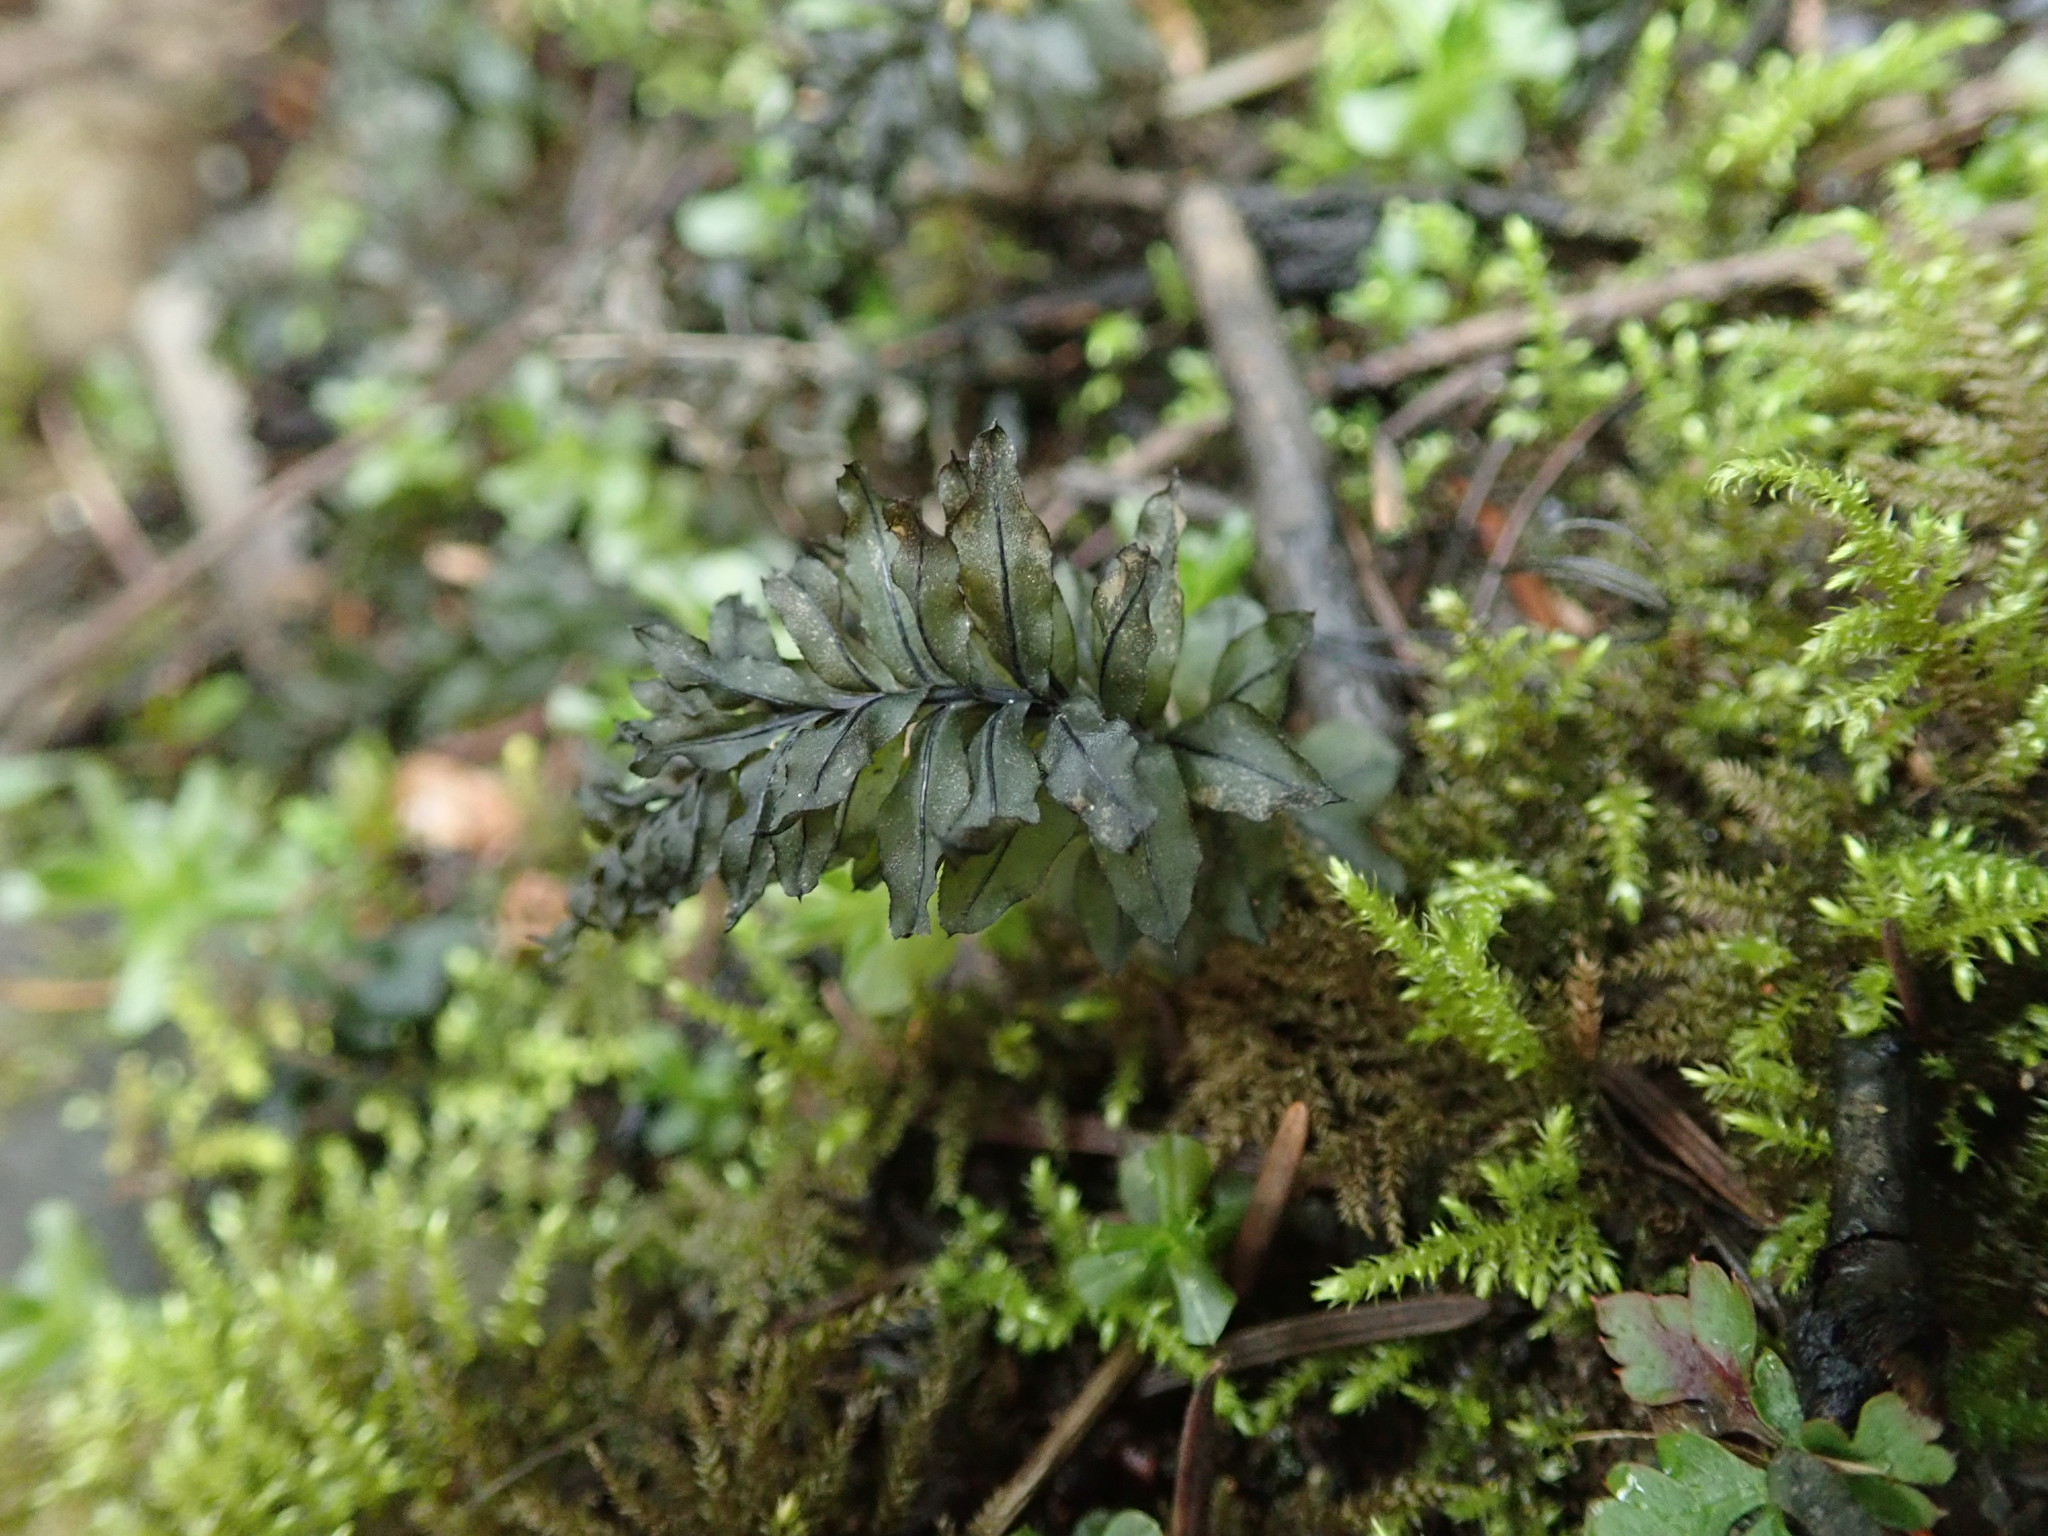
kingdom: Plantae
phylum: Bryophyta
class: Bryopsida
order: Bryales
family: Mniaceae
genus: Plagiomnium
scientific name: Plagiomnium insigne
